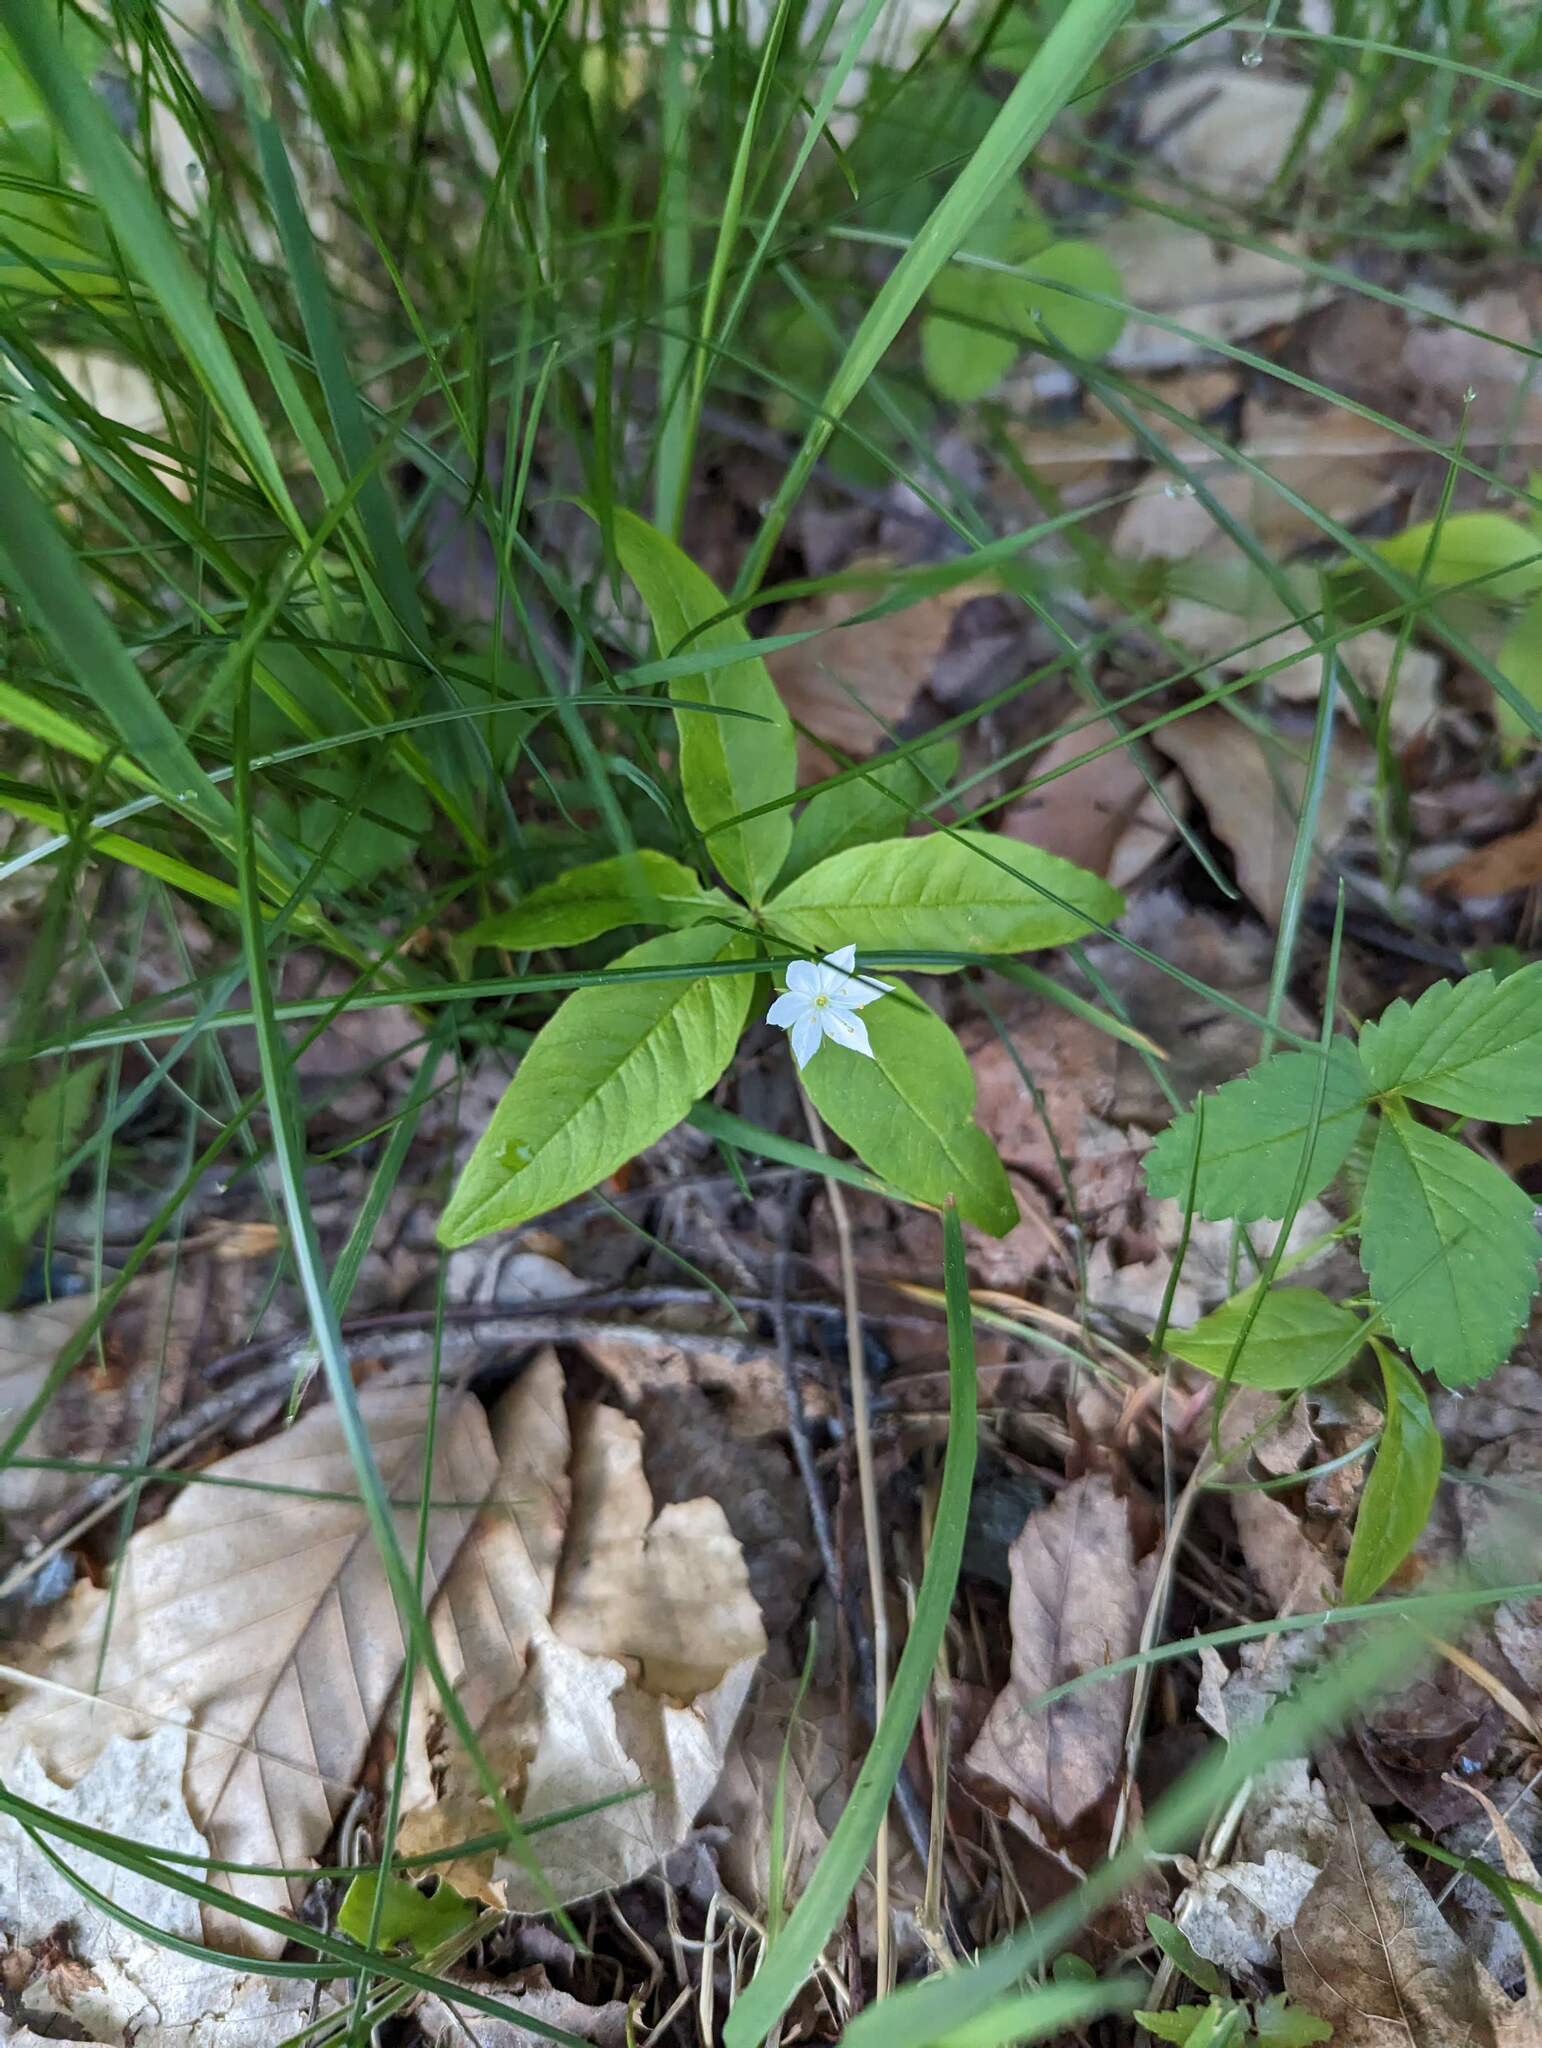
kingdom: Plantae
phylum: Tracheophyta
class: Magnoliopsida
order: Ericales
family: Primulaceae
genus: Lysimachia
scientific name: Lysimachia borealis
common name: American starflower
